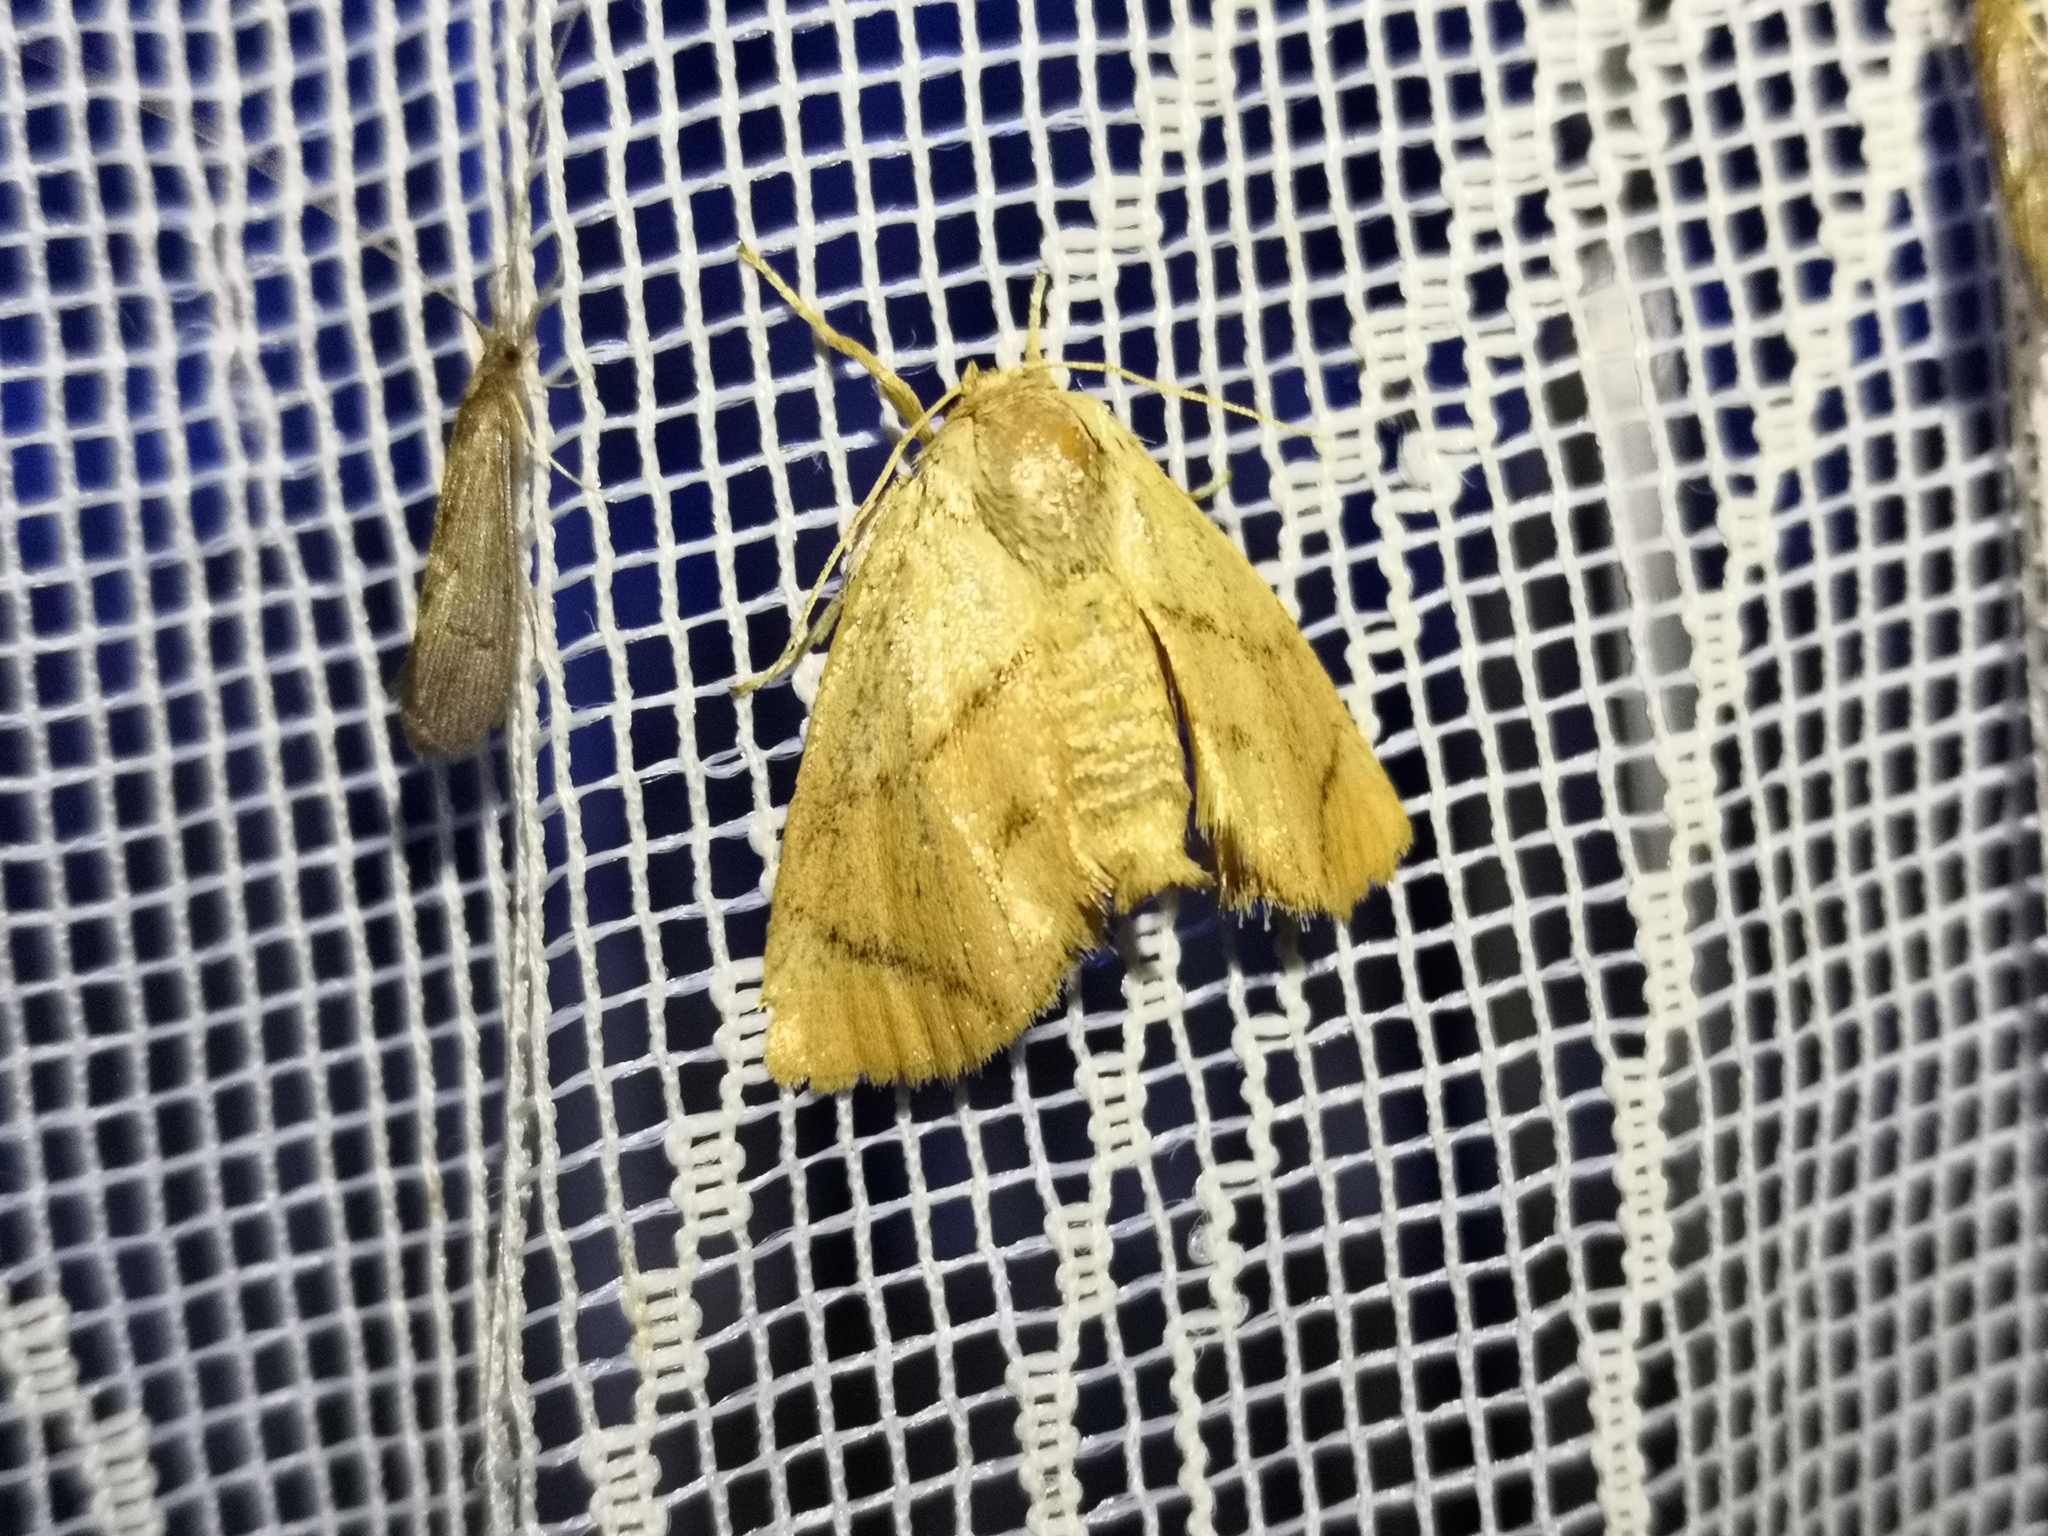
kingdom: Animalia
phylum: Arthropoda
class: Insecta
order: Lepidoptera
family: Limacodidae
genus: Apoda
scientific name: Apoda limacodes
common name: Festoon
